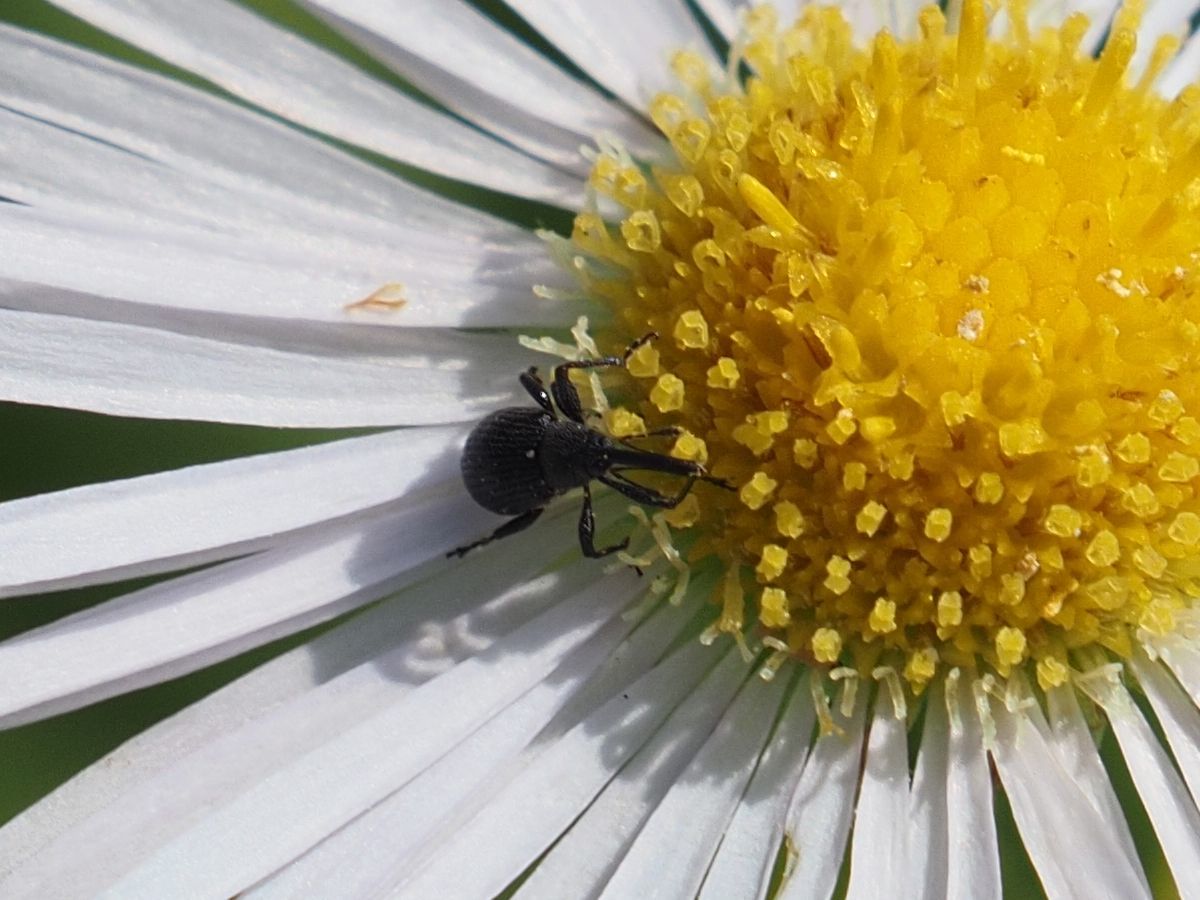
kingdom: Animalia
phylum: Arthropoda
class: Insecta
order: Coleoptera
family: Curculionidae
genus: Anthonomus
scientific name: Anthonomus rubi
